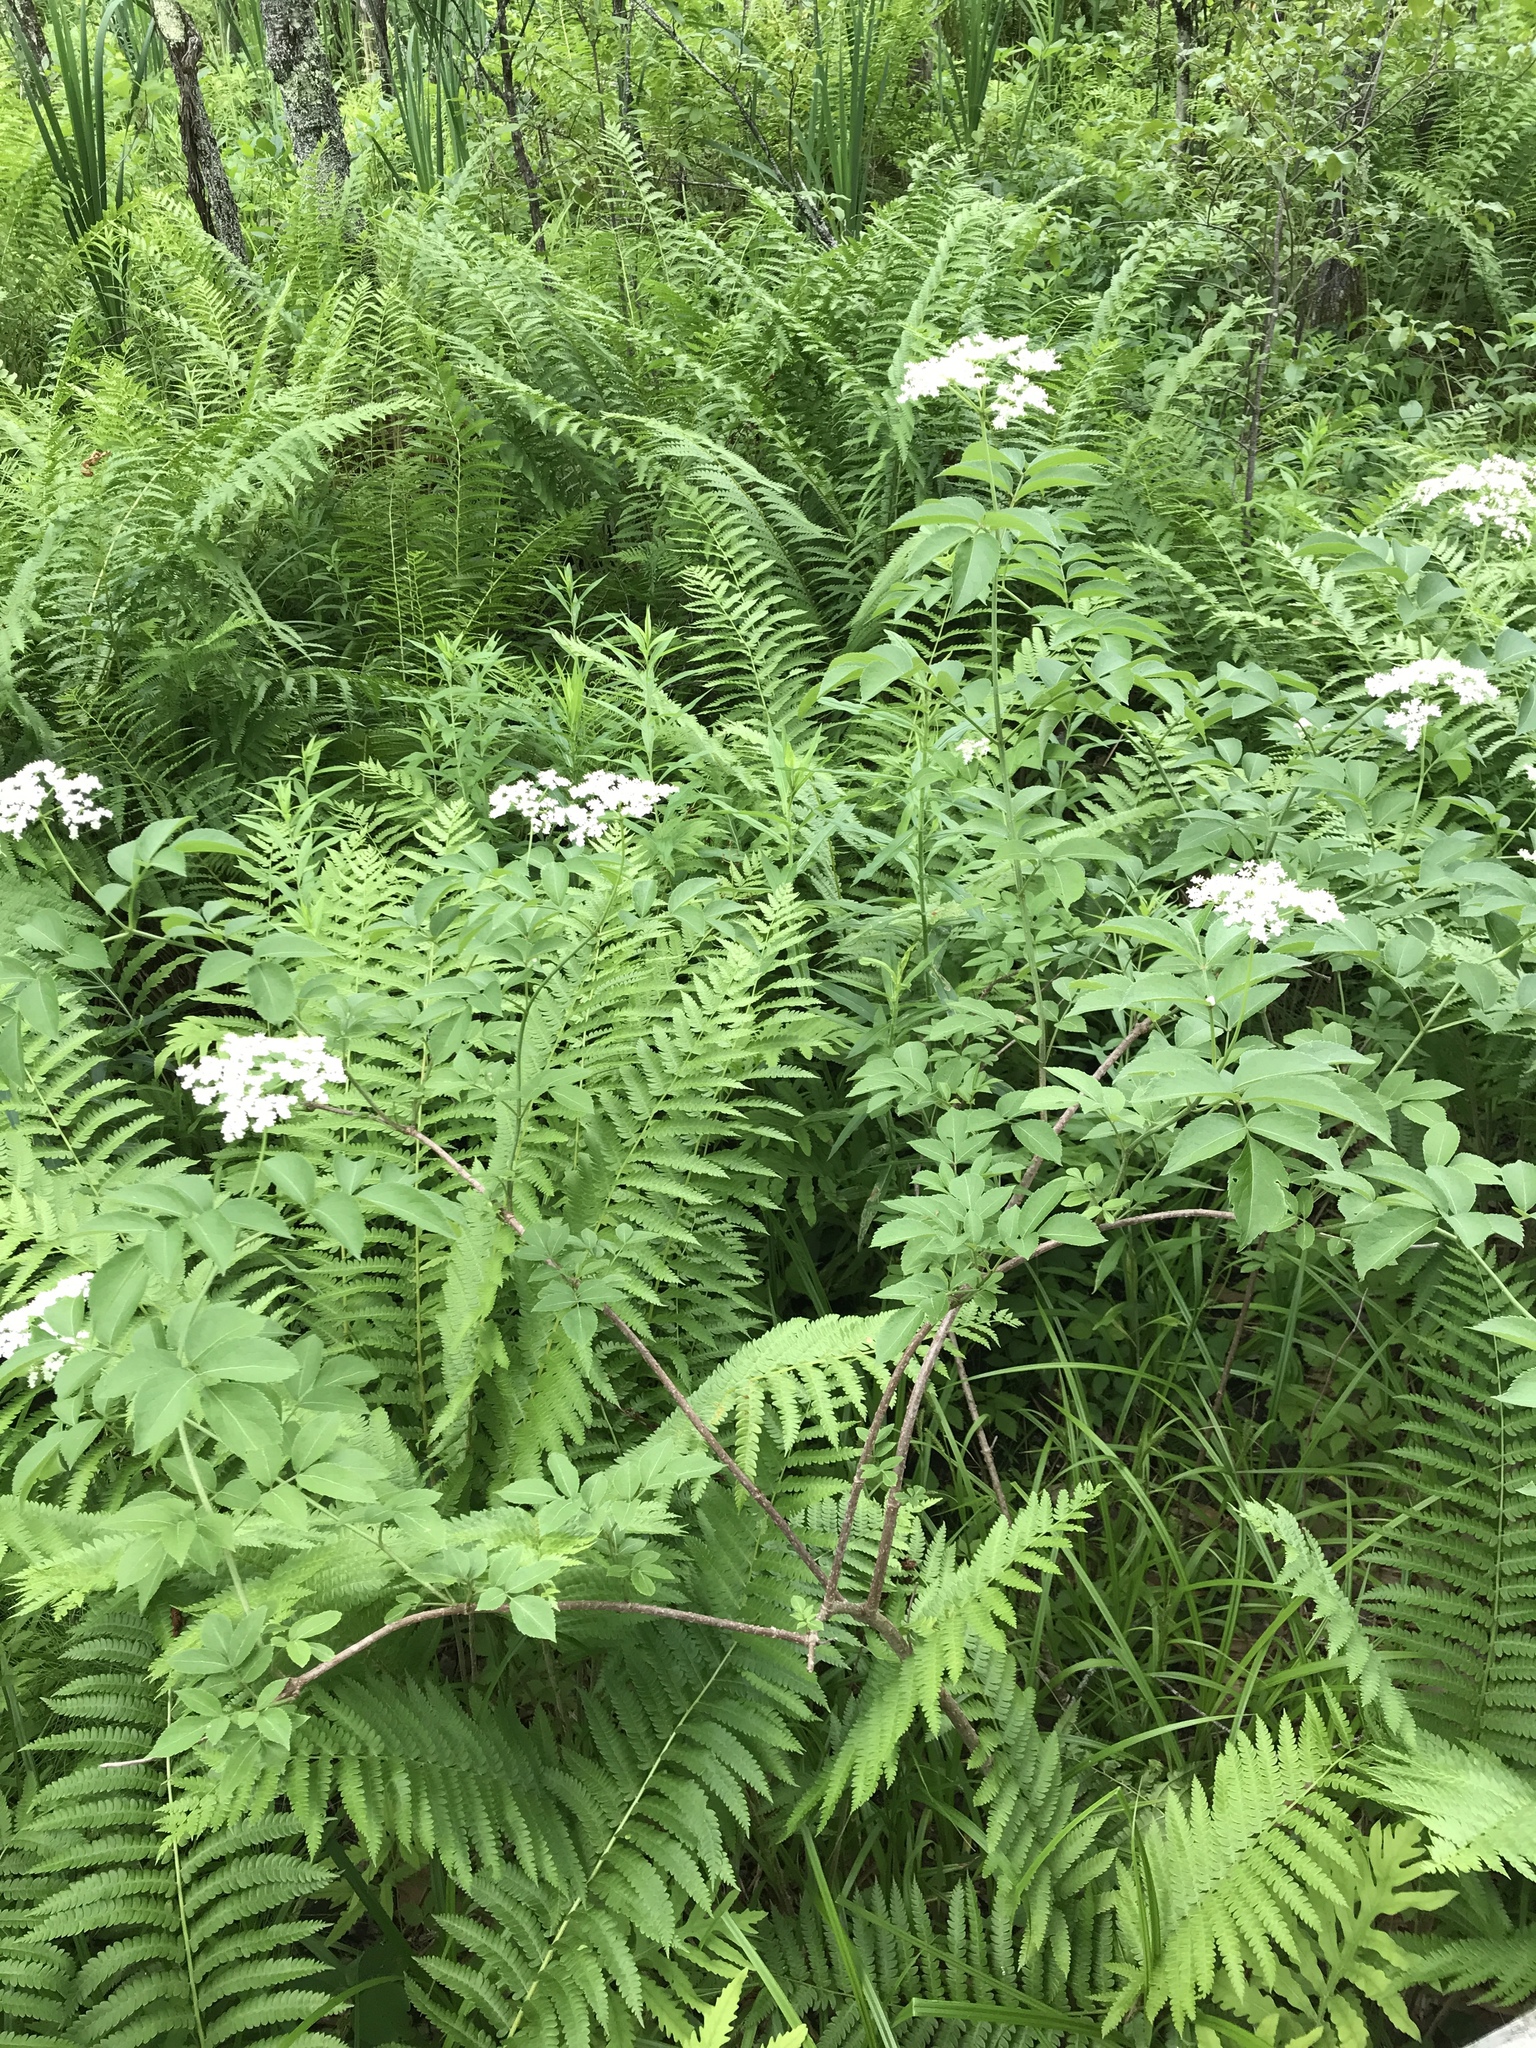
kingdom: Plantae
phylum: Tracheophyta
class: Magnoliopsida
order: Dipsacales
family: Viburnaceae
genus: Sambucus
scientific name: Sambucus canadensis
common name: American elder
